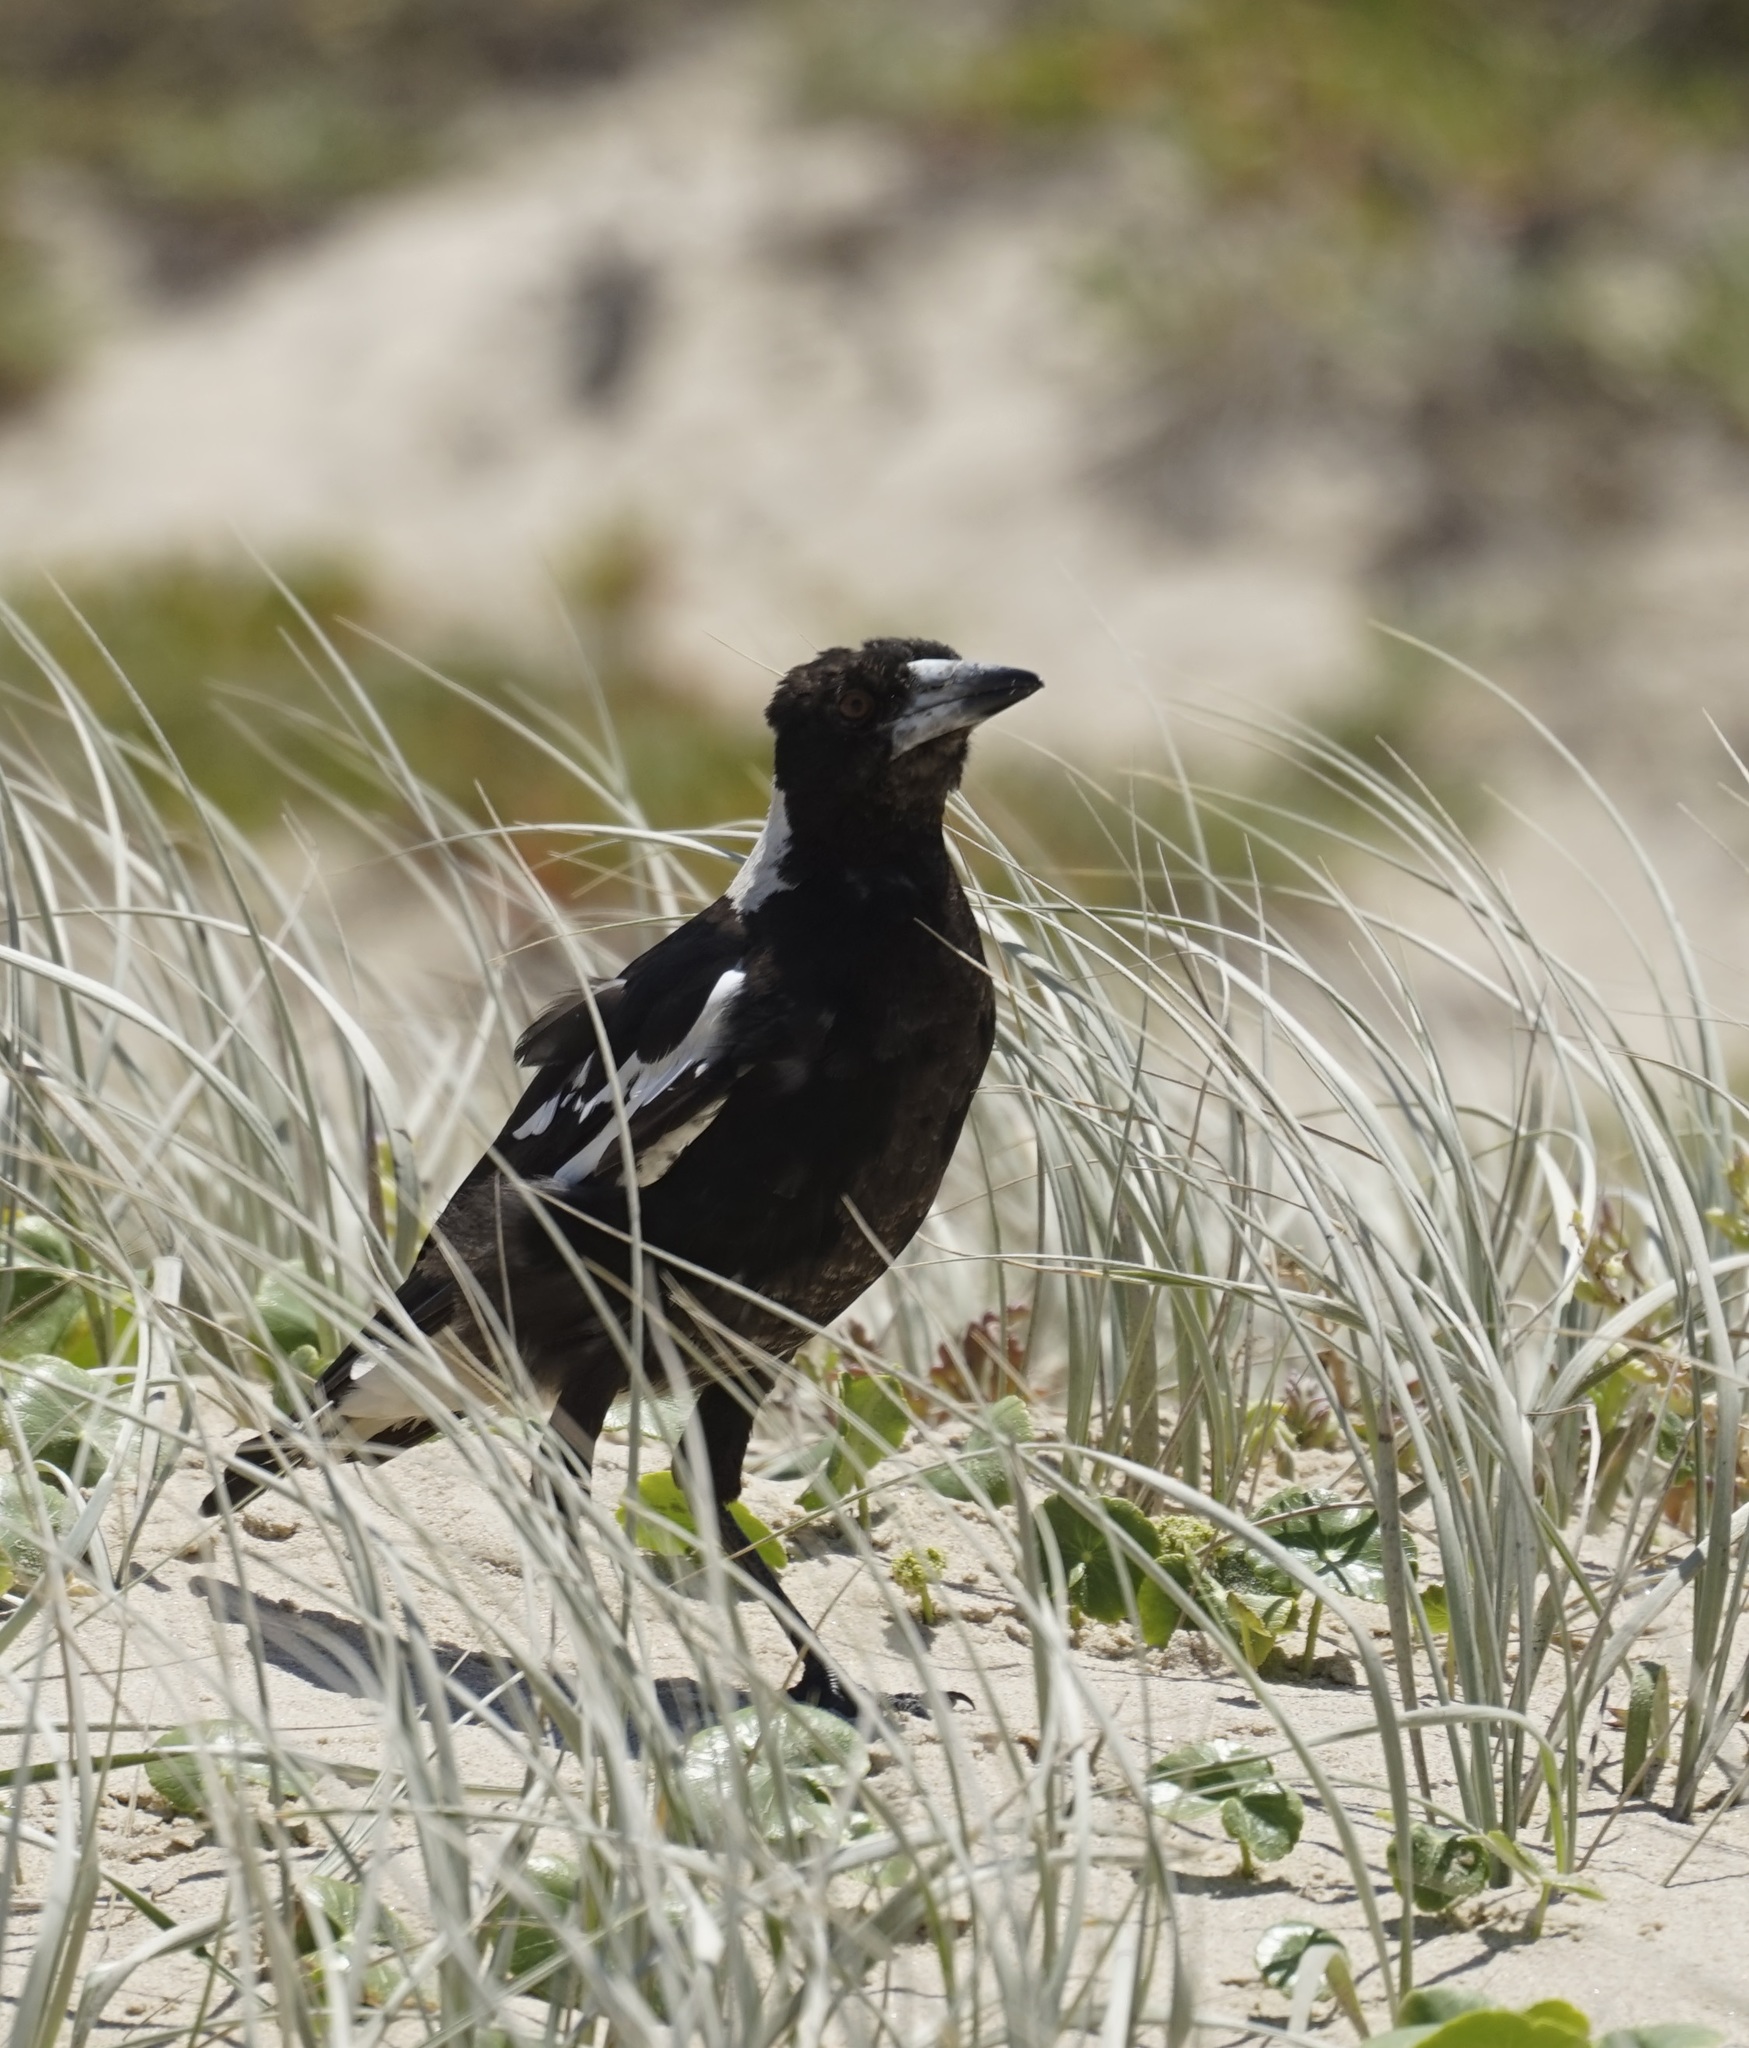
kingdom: Animalia
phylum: Chordata
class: Aves
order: Passeriformes
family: Cracticidae
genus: Gymnorhina
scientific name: Gymnorhina tibicen
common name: Australian magpie
